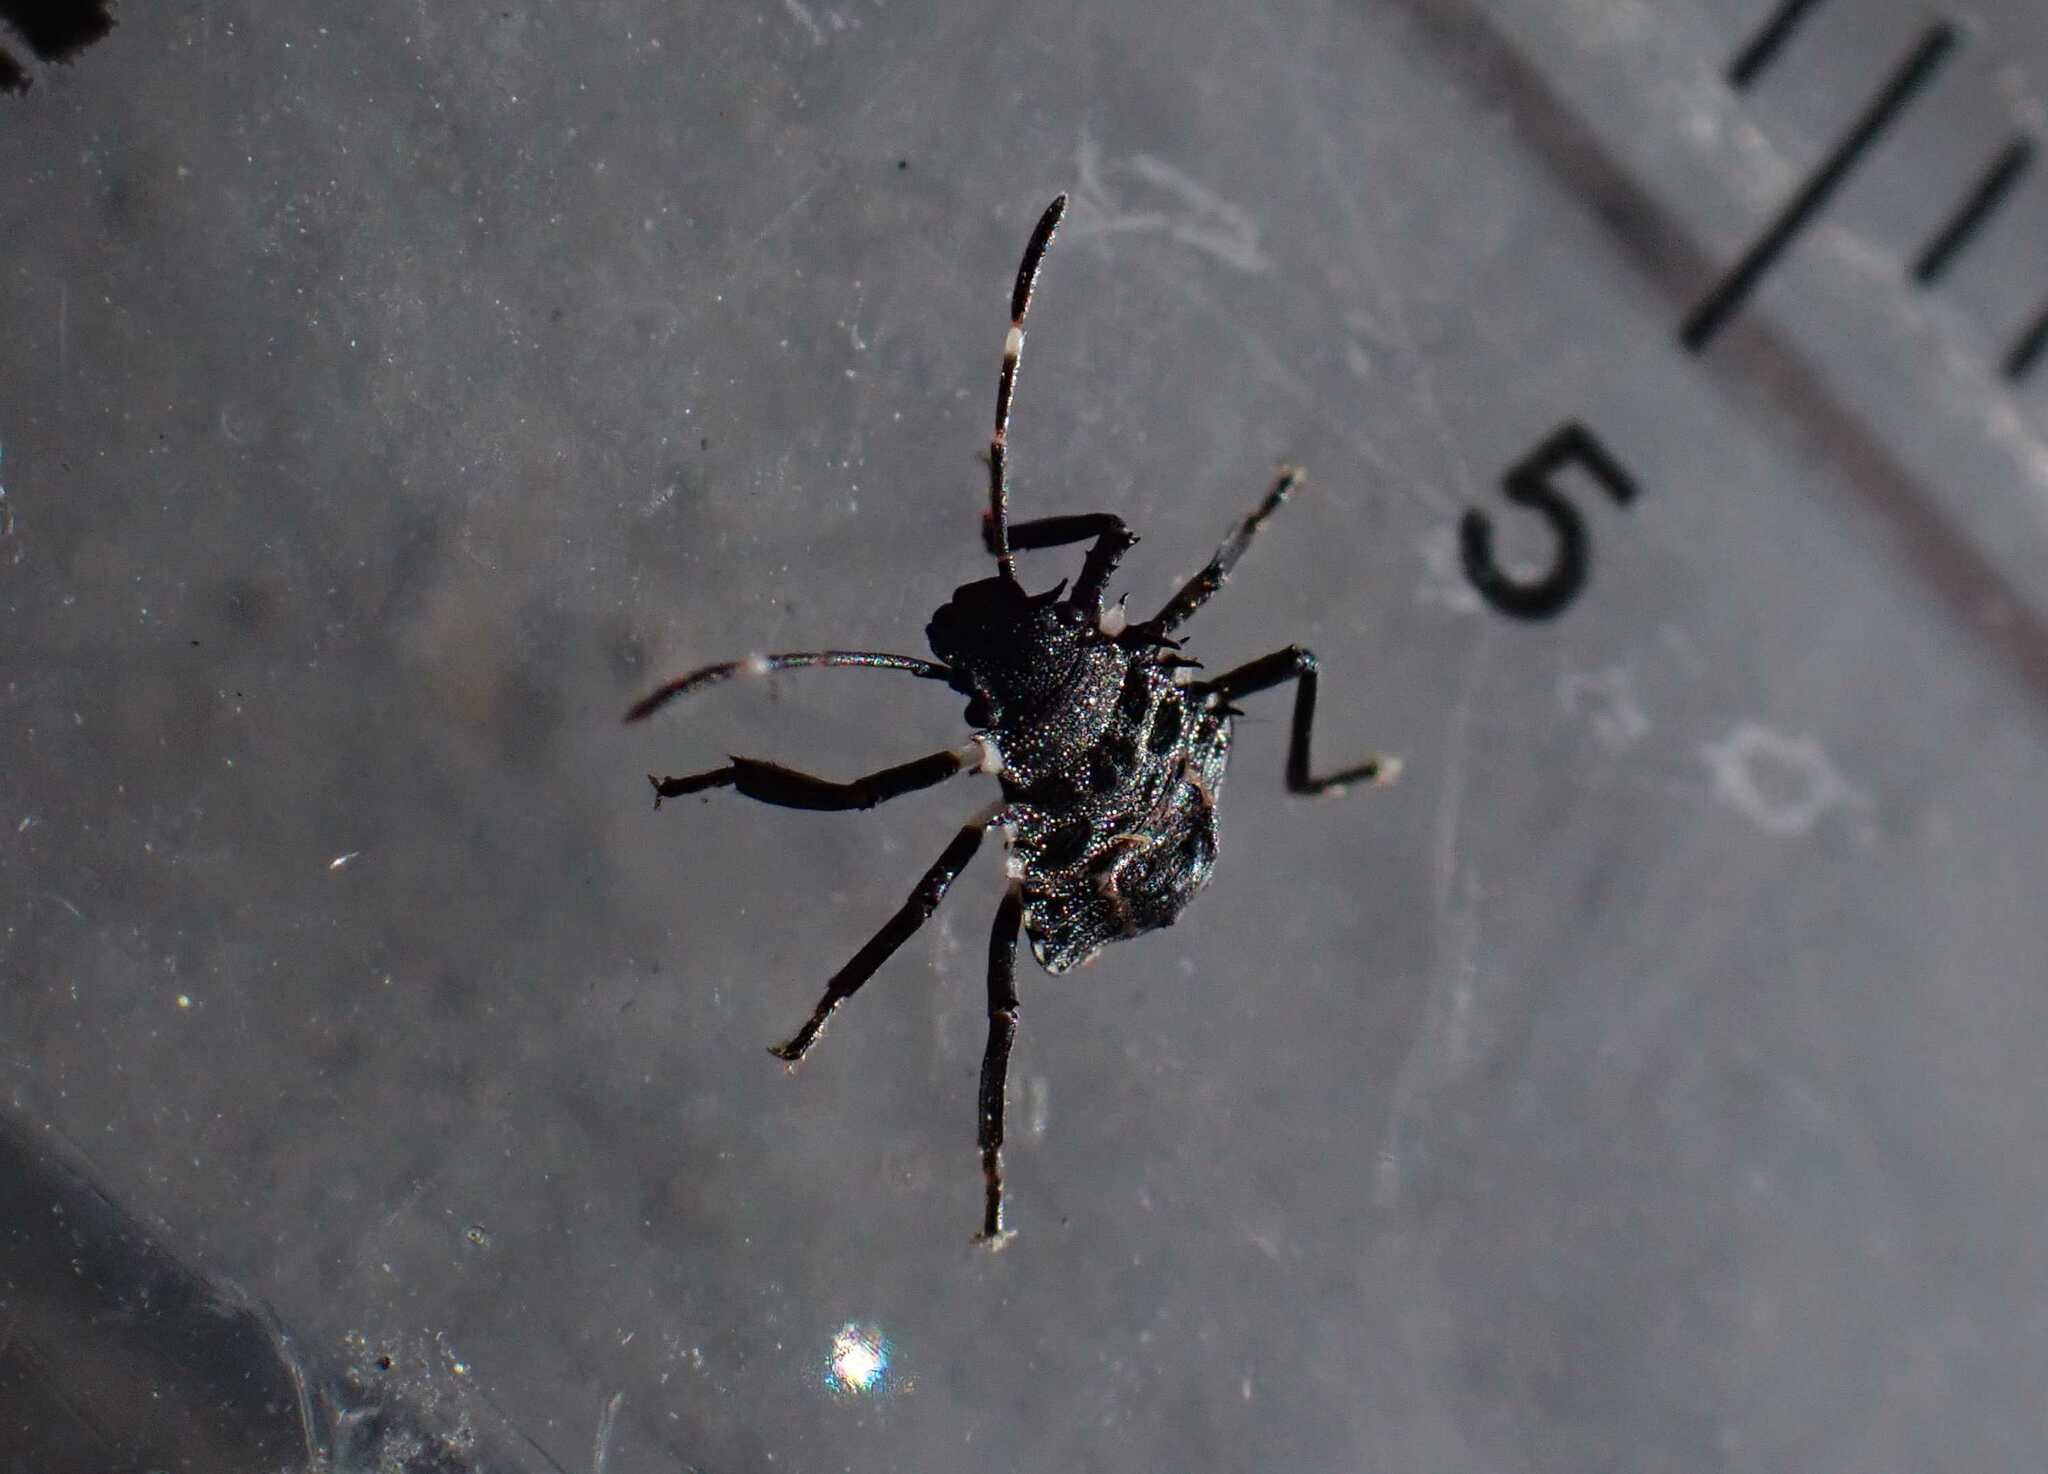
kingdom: Animalia
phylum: Arthropoda
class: Insecta
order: Hemiptera
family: Pentatomidae
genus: Halyomorpha
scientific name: Halyomorpha halys
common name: Brown marmorated stink bug
